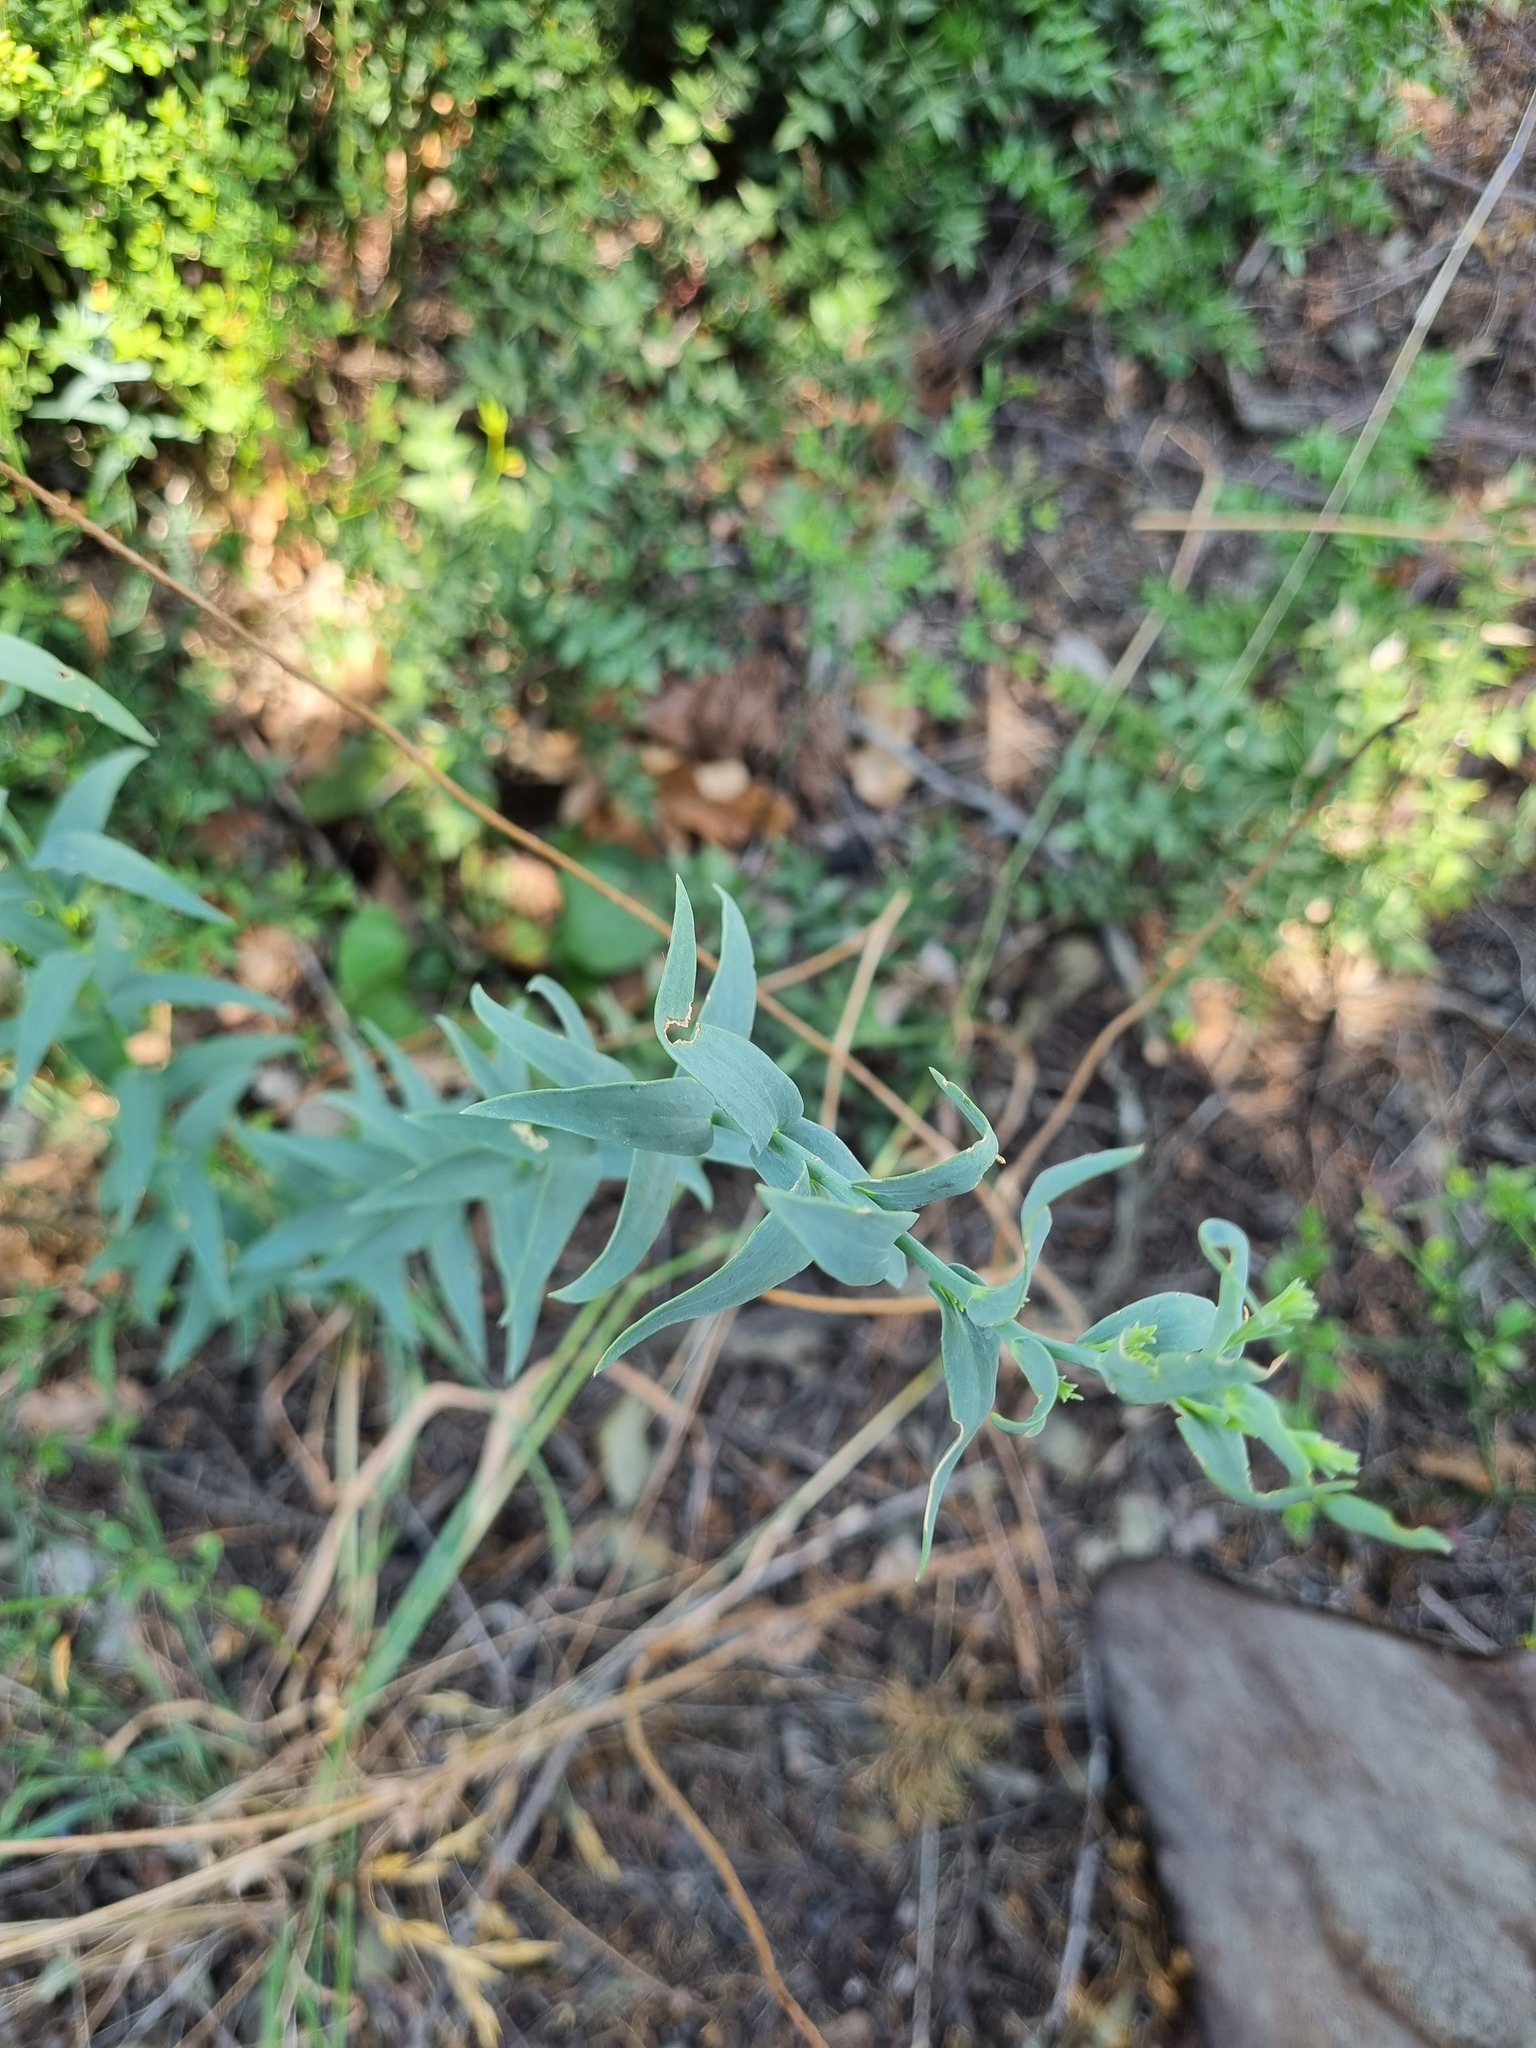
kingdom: Plantae
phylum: Tracheophyta
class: Magnoliopsida
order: Lamiales
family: Plantaginaceae
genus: Linaria
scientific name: Linaria genistifolia
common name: Broomleaf toadflax
